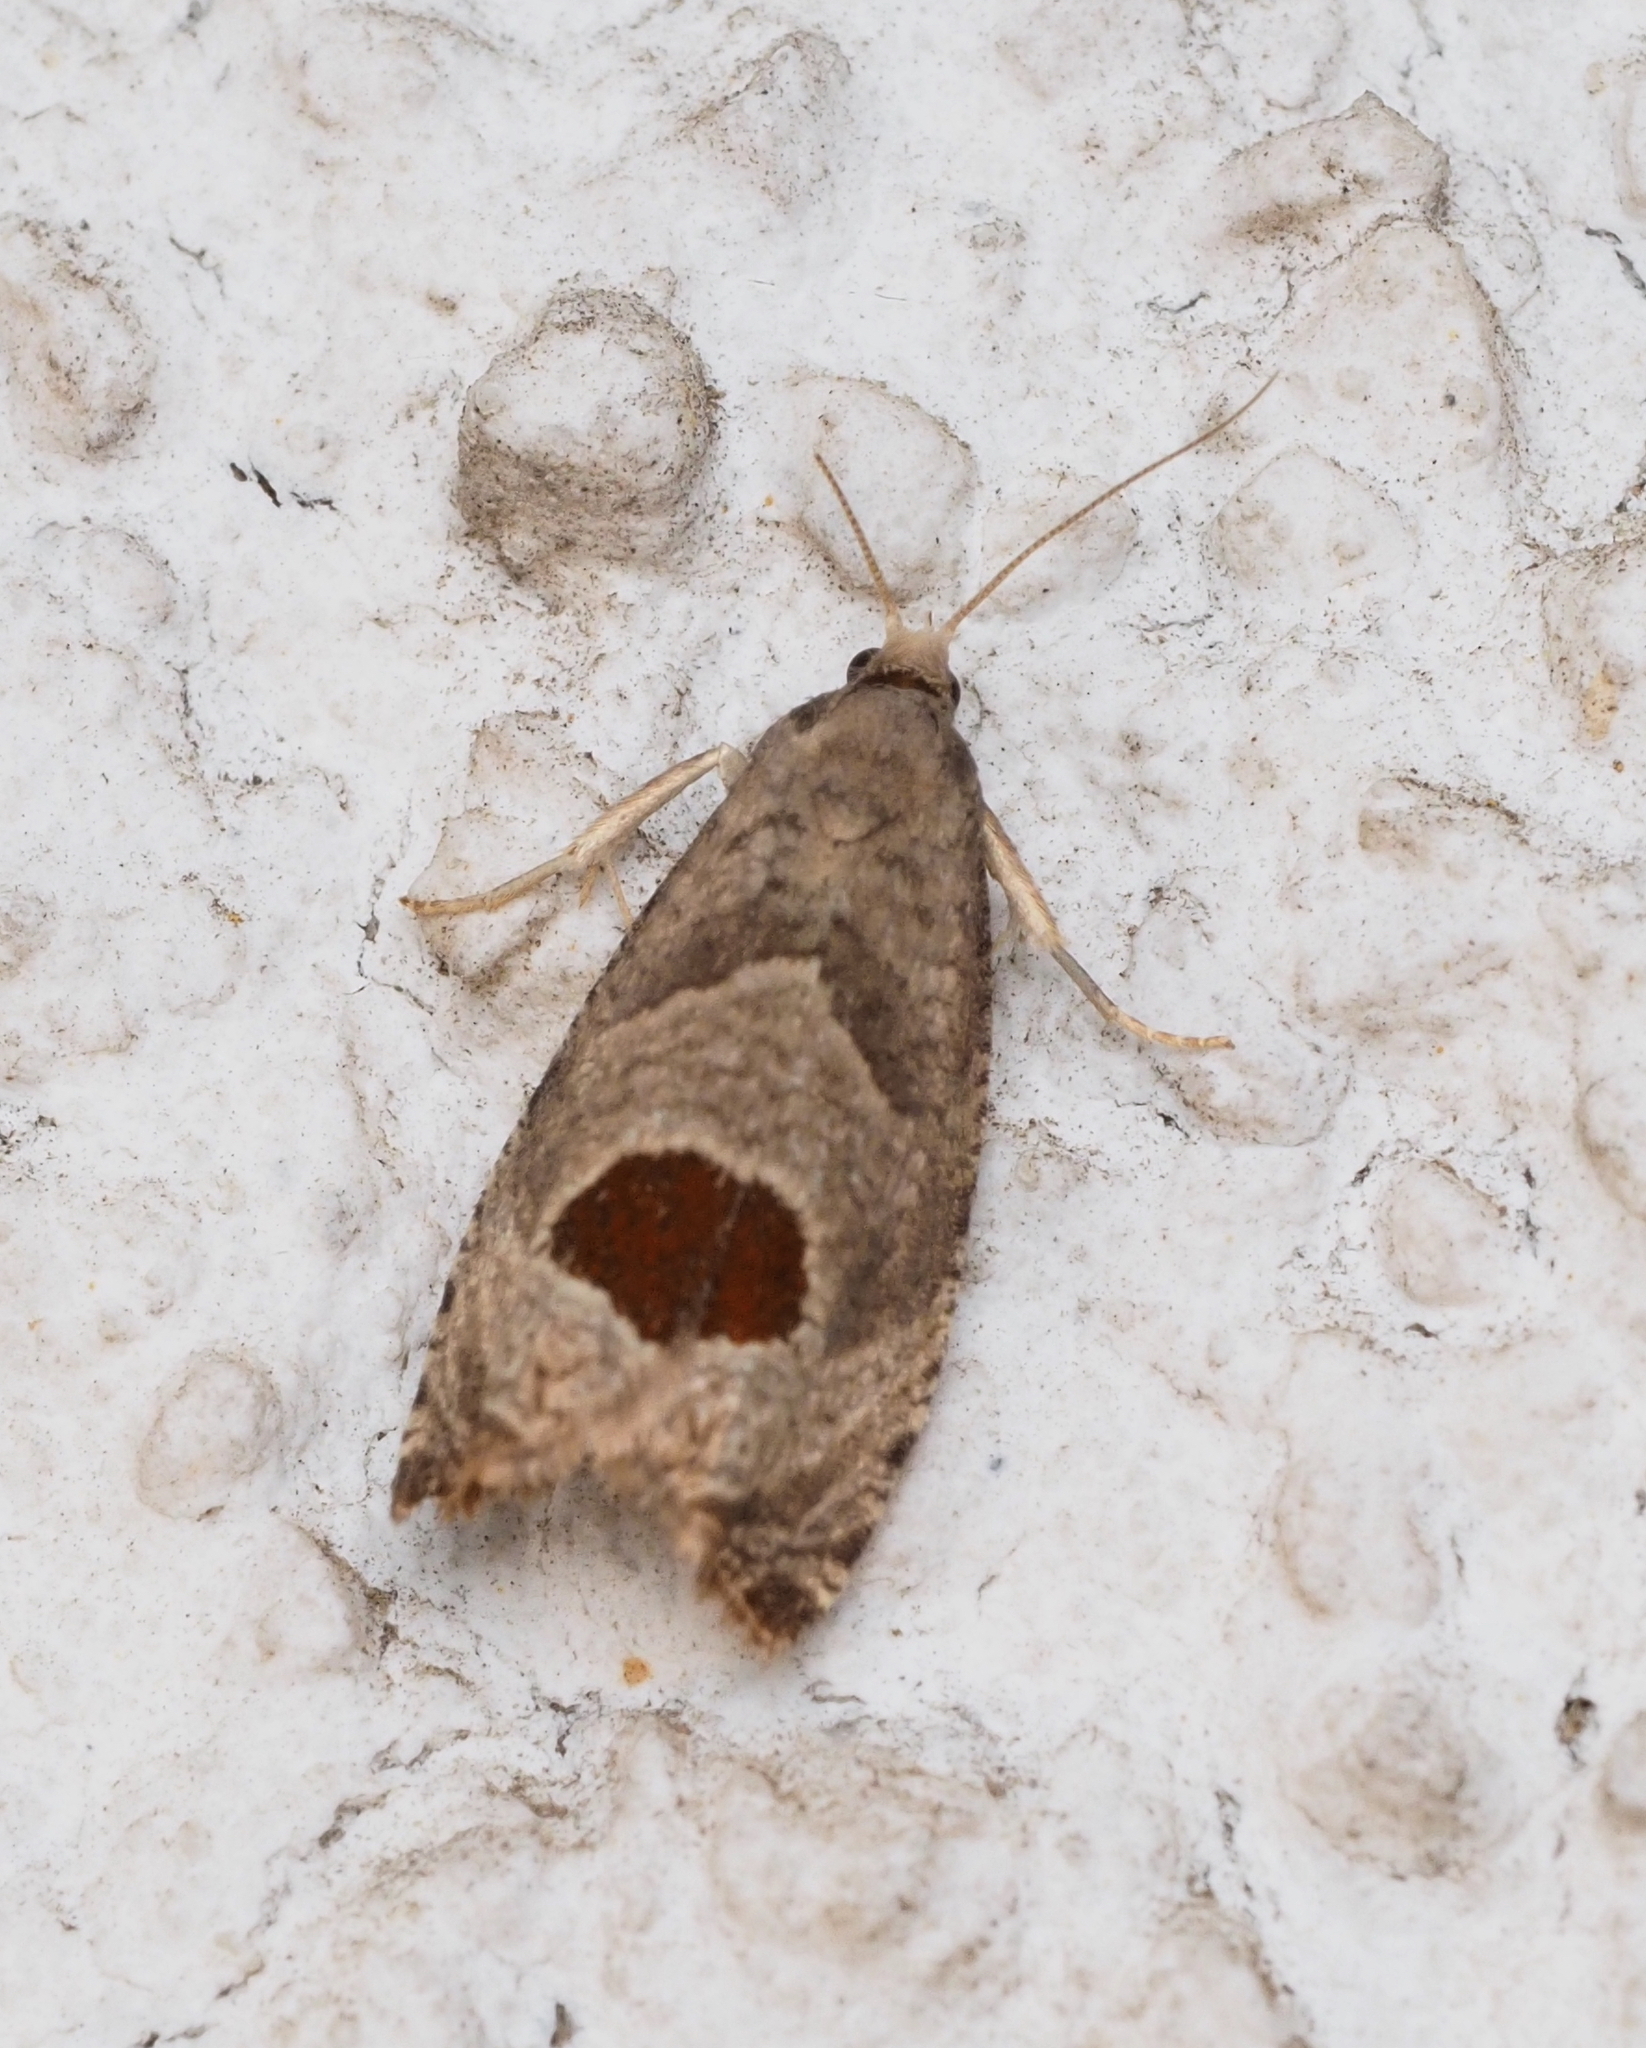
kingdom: Animalia
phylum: Arthropoda
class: Insecta
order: Lepidoptera
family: Tortricidae
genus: Notocelia
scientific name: Notocelia uddmanniana
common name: Bramble shoot moth
